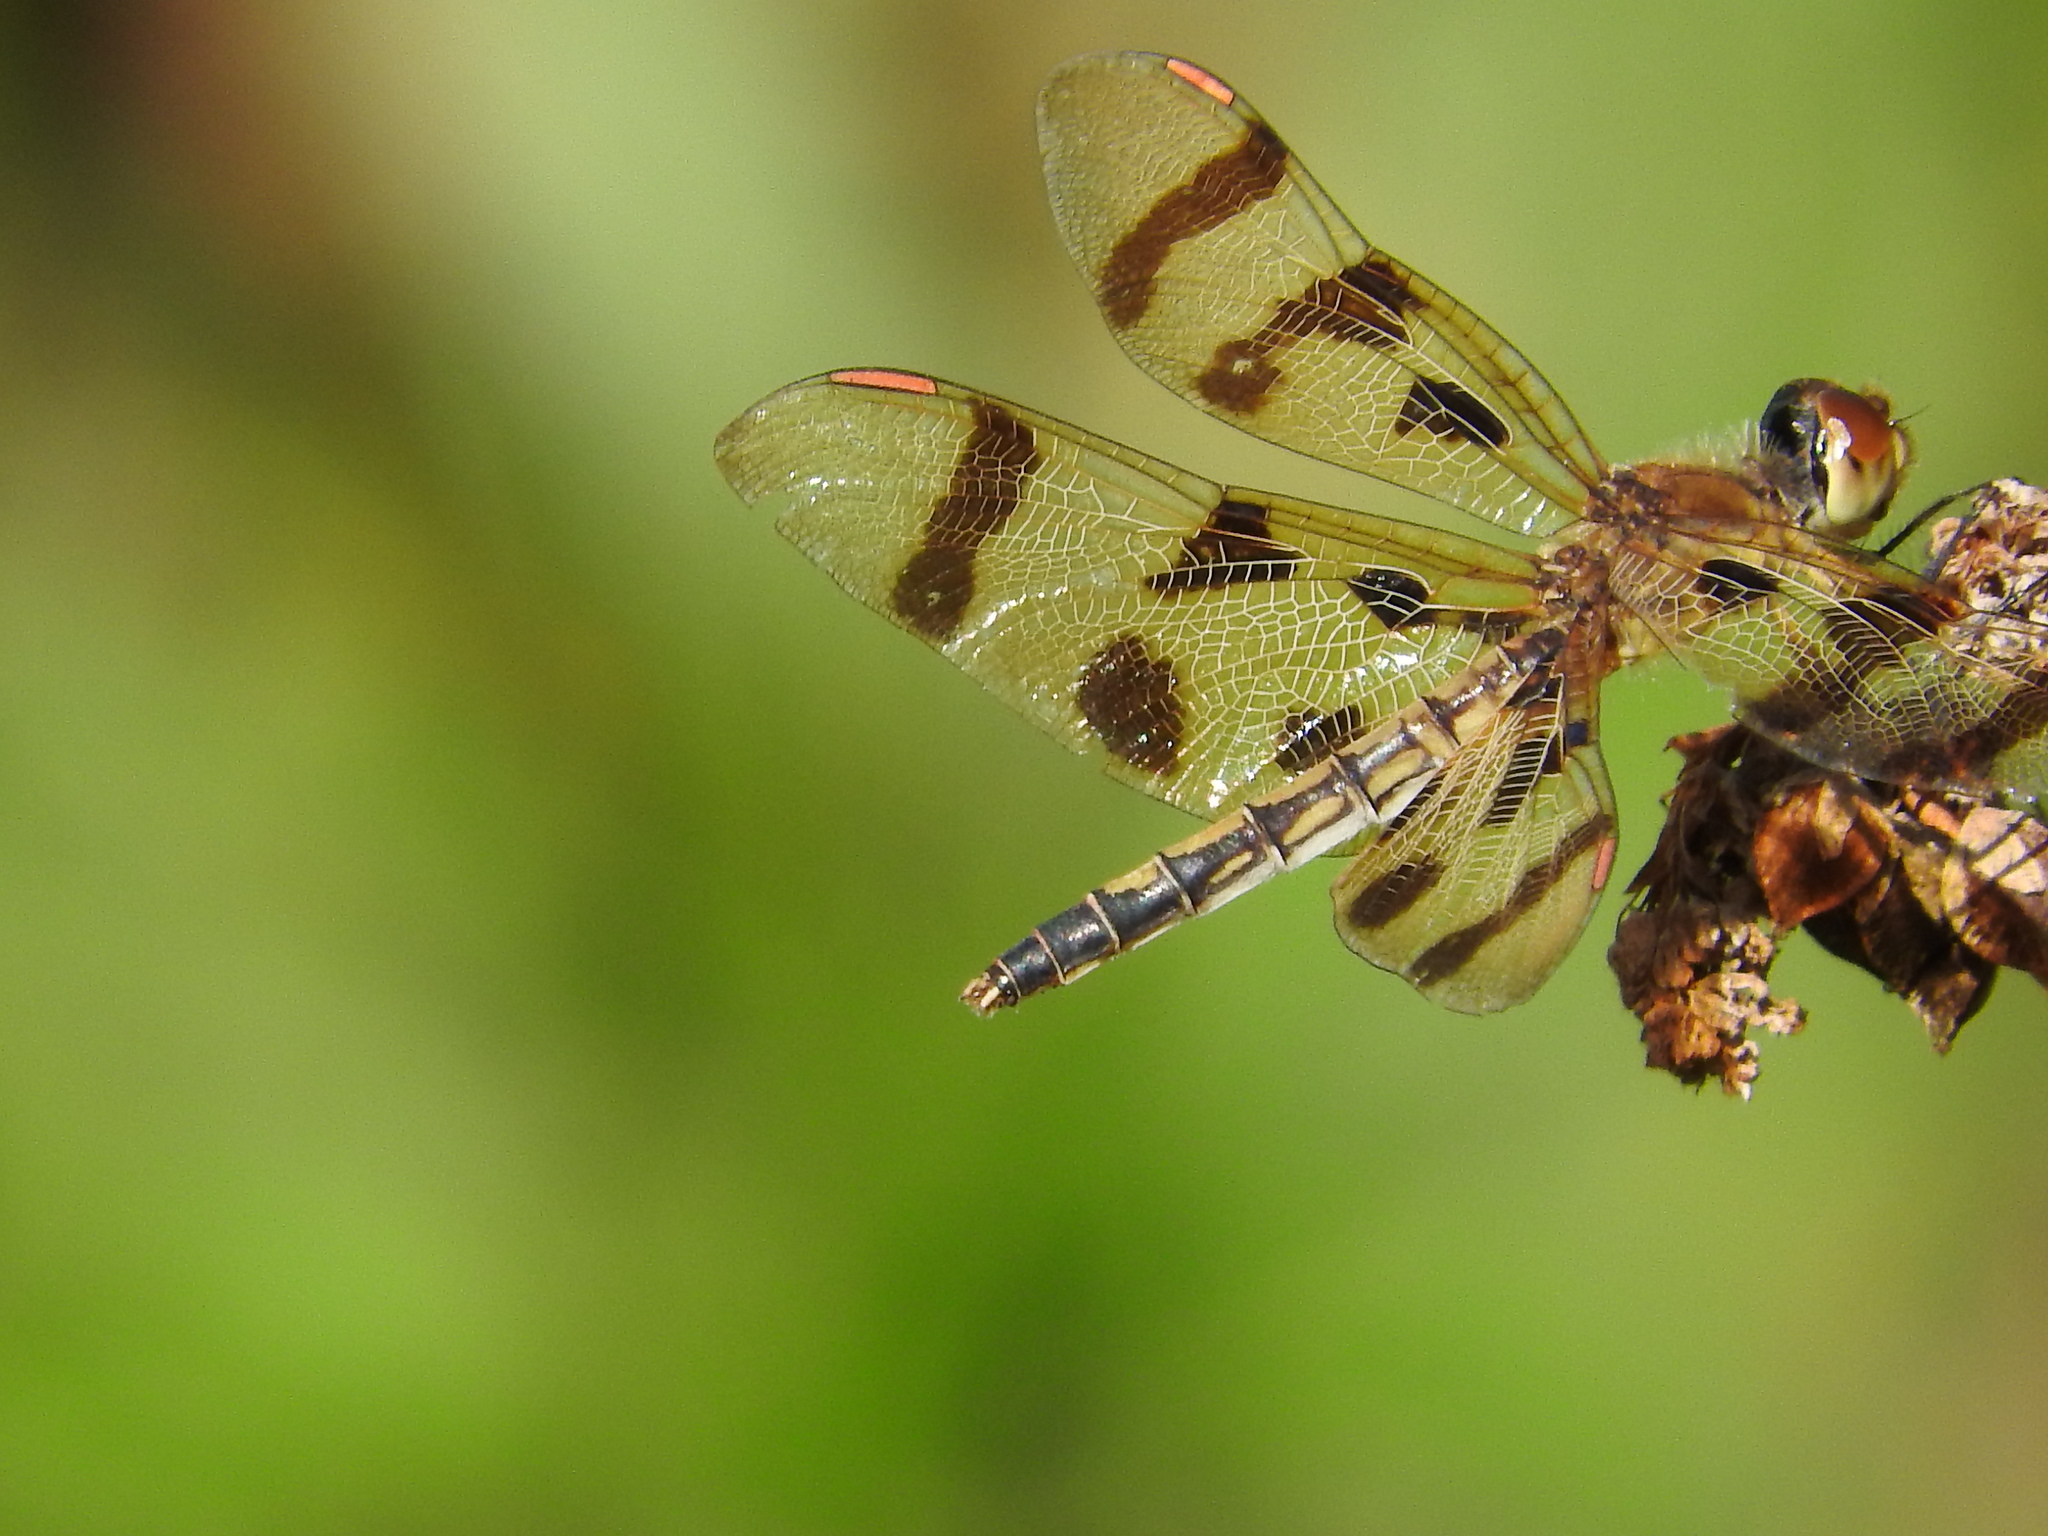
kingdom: Animalia
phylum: Arthropoda
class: Insecta
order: Odonata
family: Libellulidae
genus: Celithemis
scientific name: Celithemis eponina
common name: Halloween pennant
